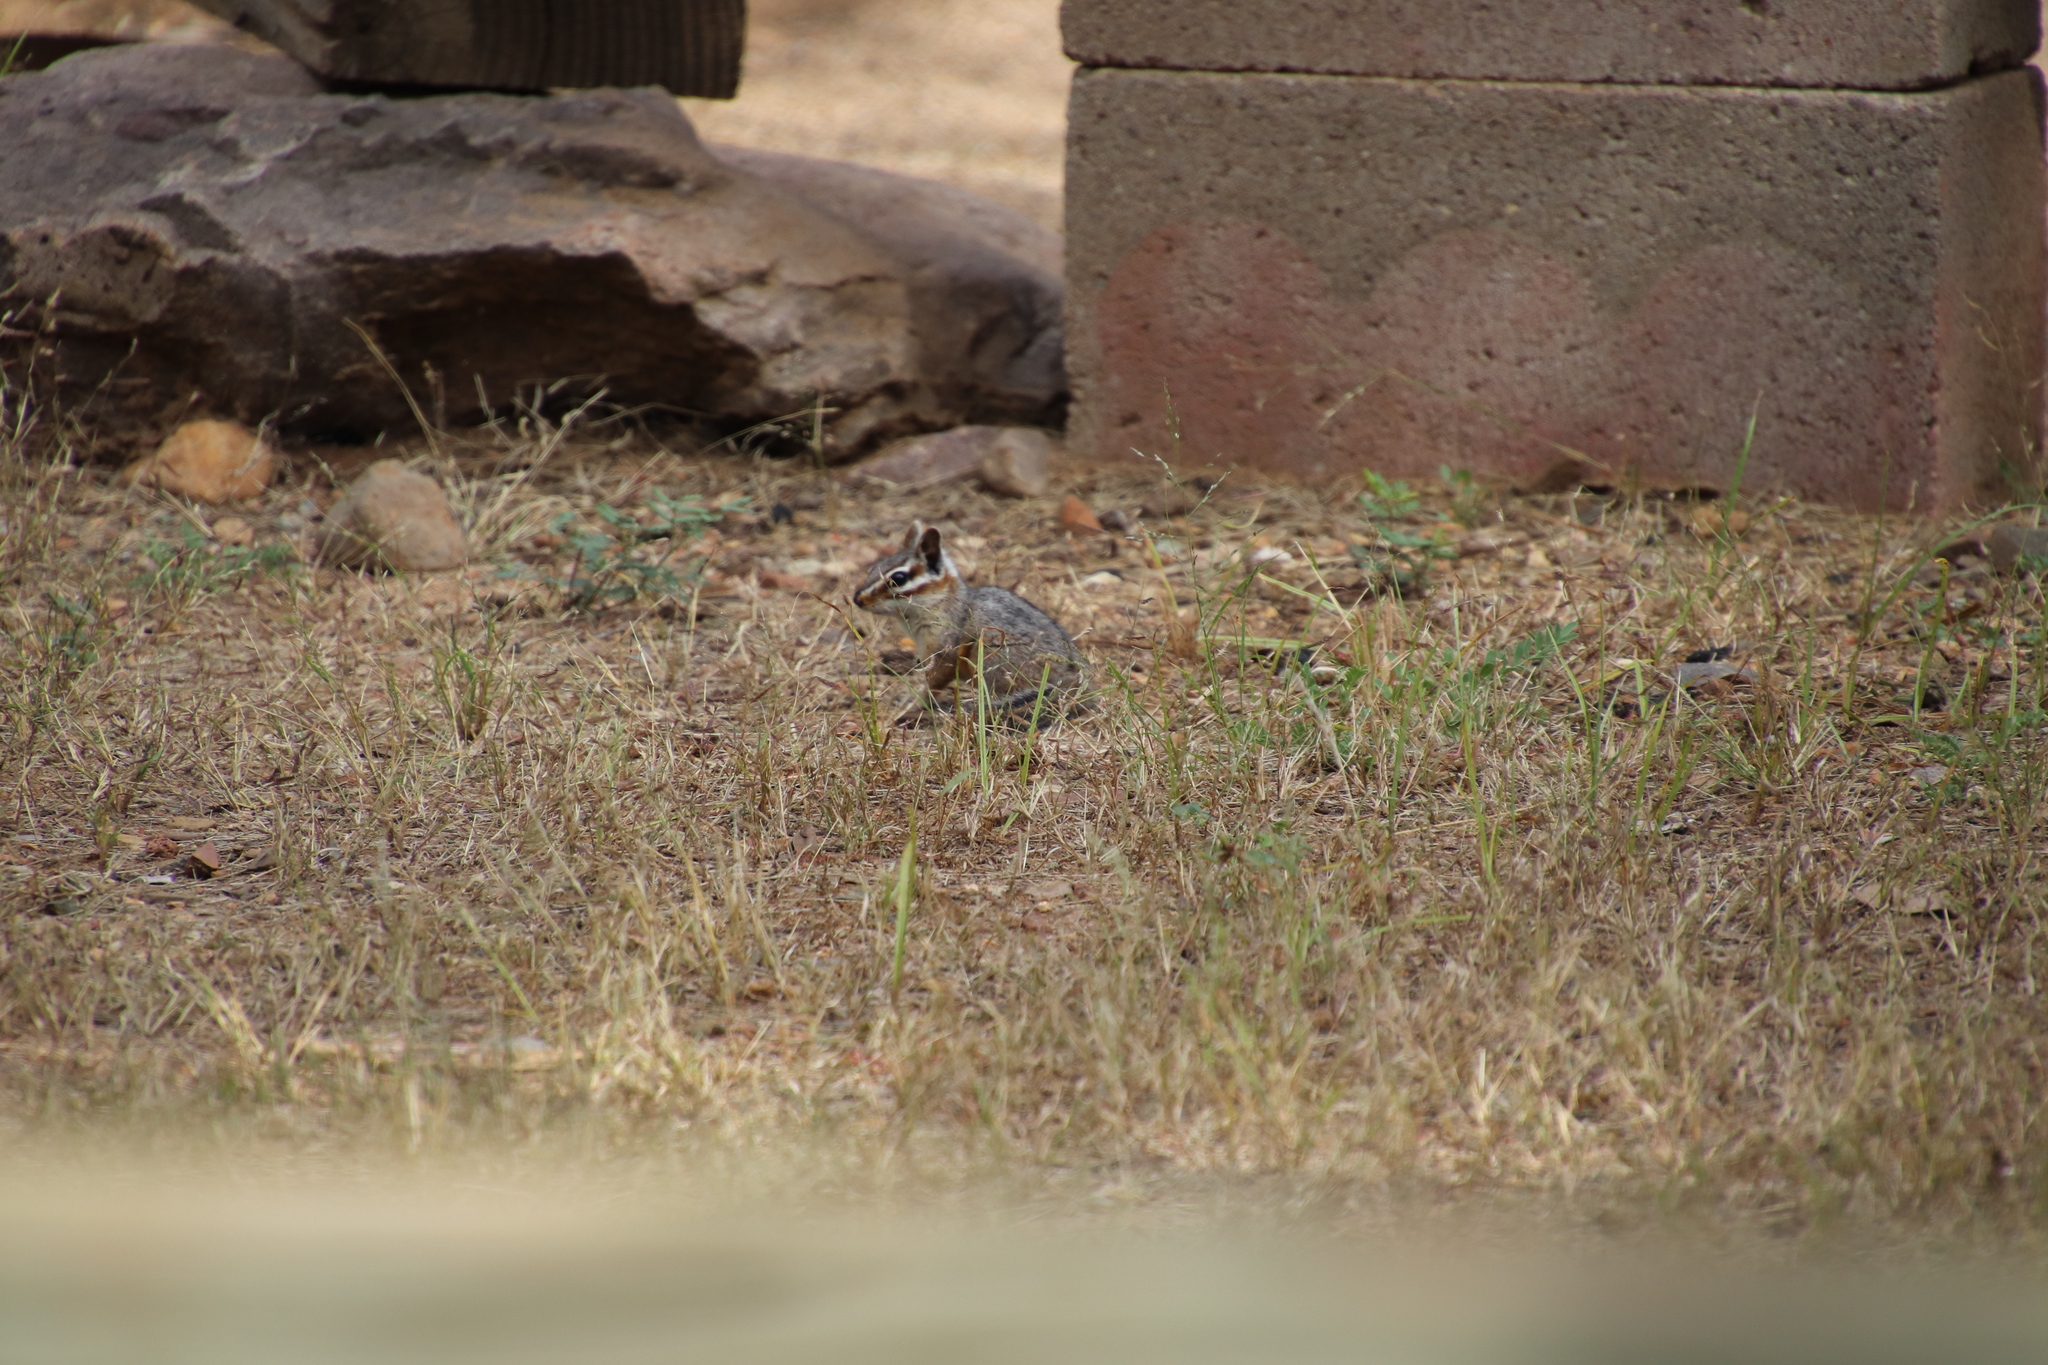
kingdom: Animalia
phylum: Chordata
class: Mammalia
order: Rodentia
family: Sciuridae
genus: Tamias
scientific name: Tamias dorsalis
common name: Cliff chipmunk
